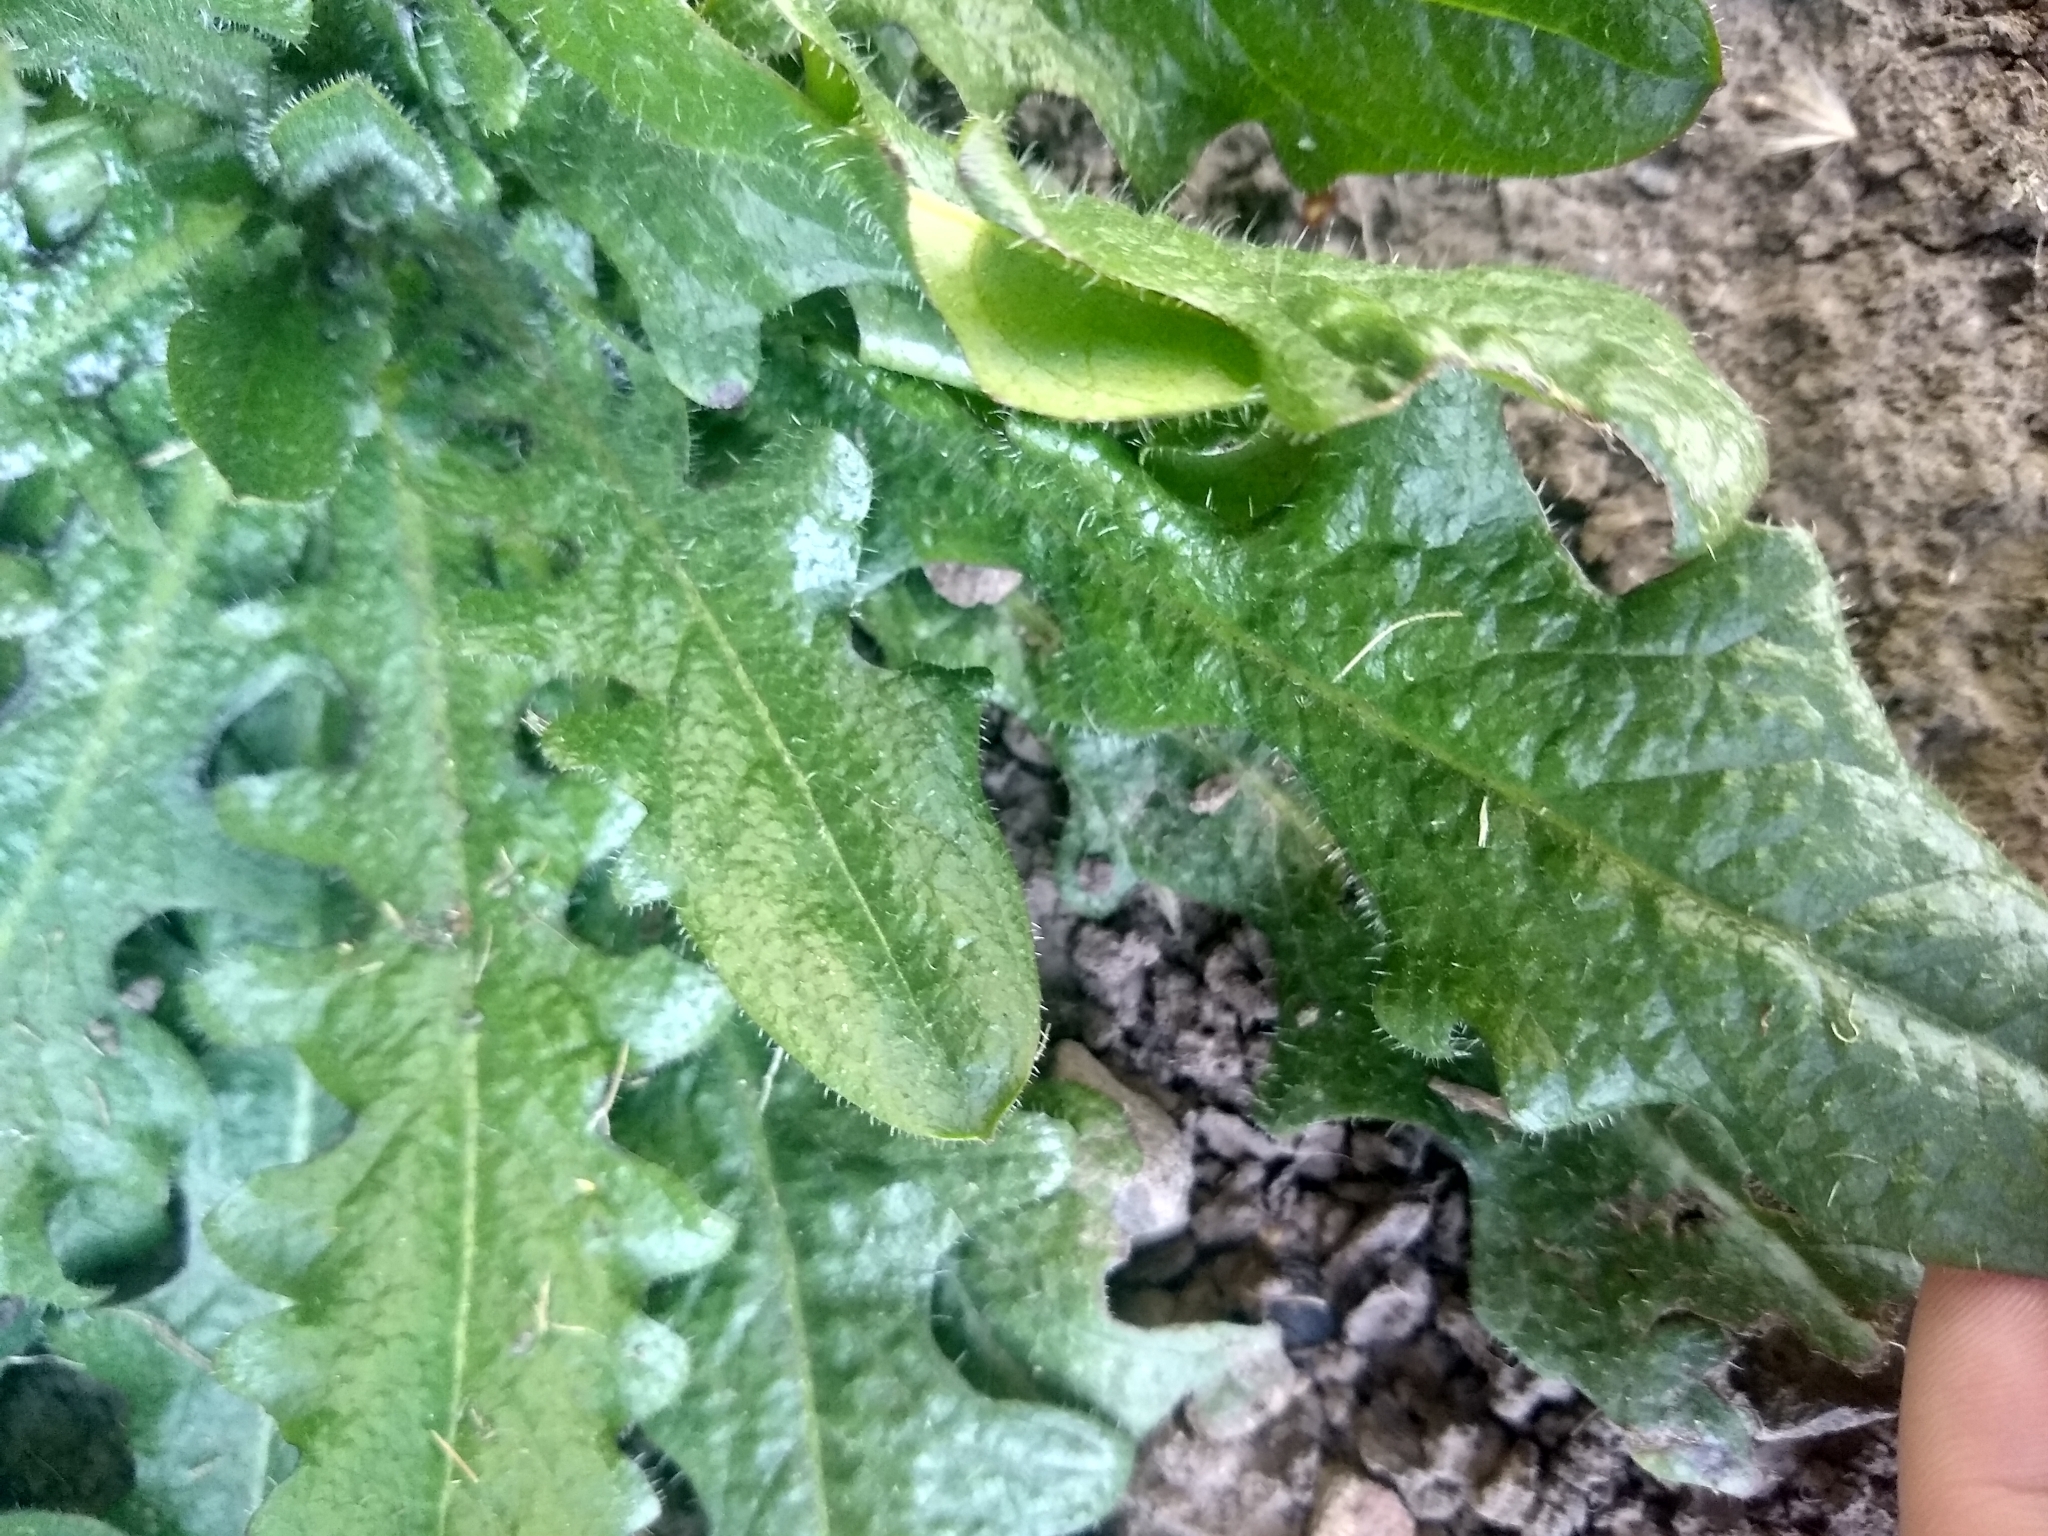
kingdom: Plantae
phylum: Tracheophyta
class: Magnoliopsida
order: Asterales
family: Asteraceae
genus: Hypochaeris
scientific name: Hypochaeris radicata
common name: Flatweed
